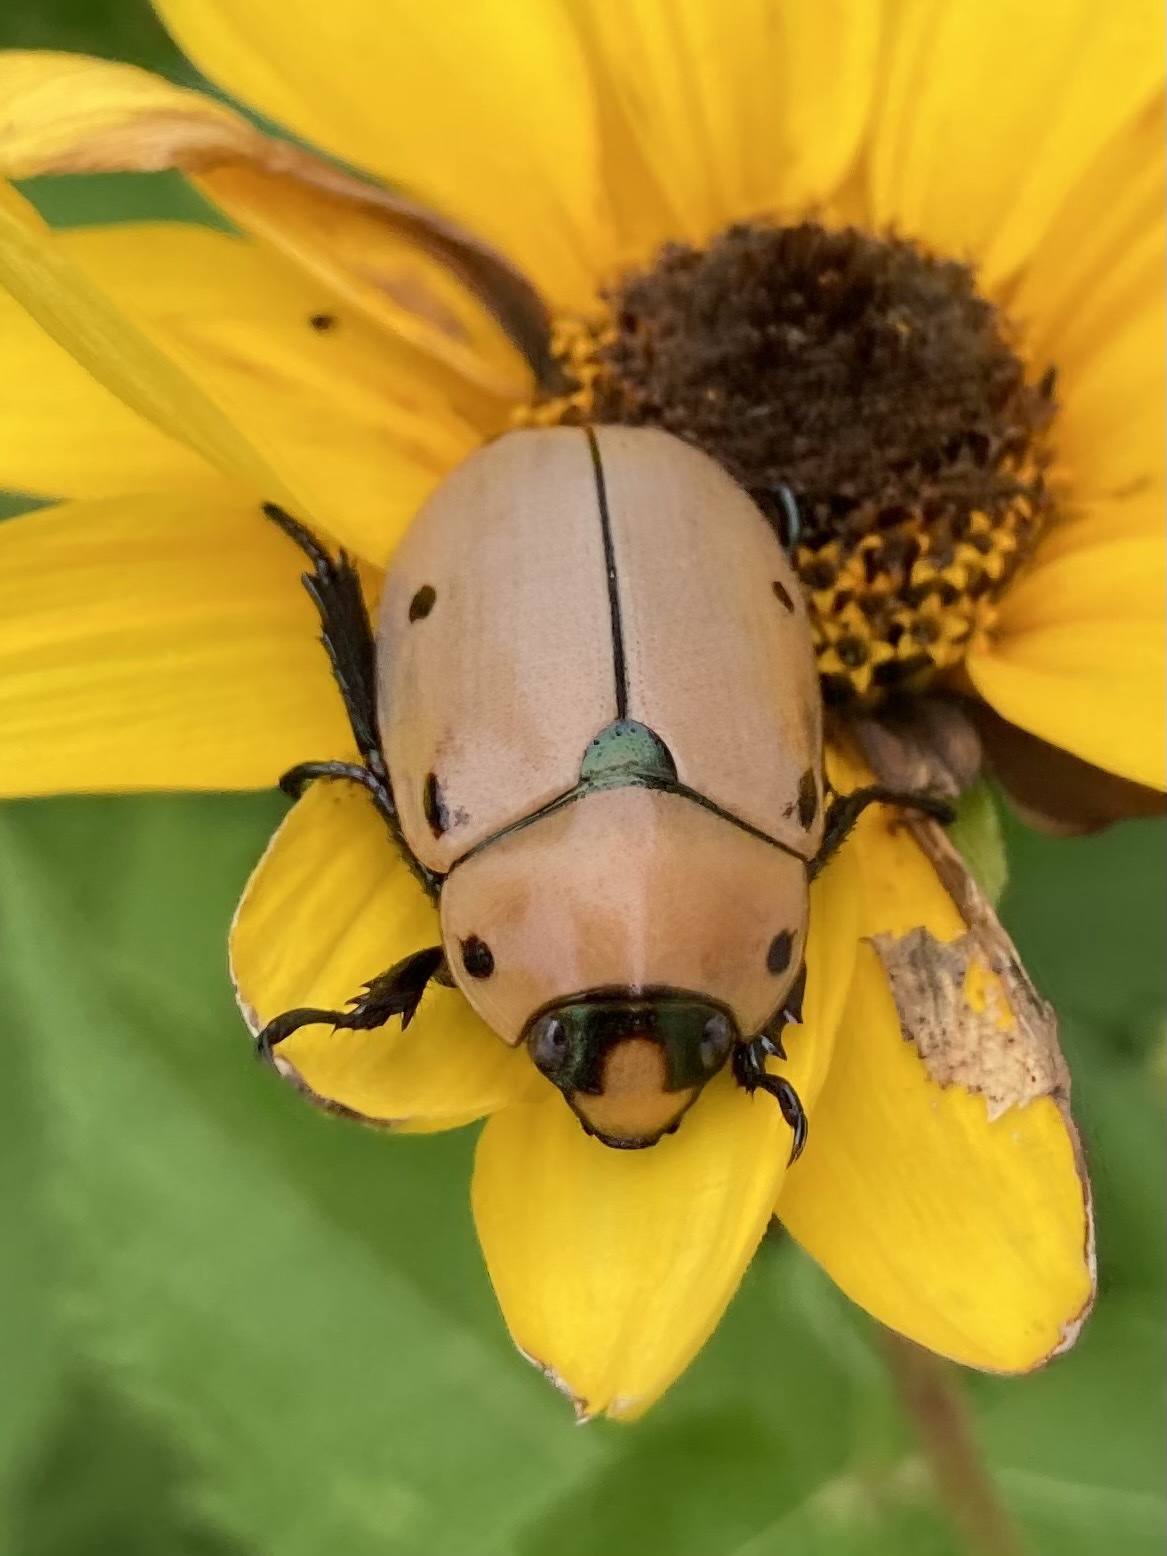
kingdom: Animalia
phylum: Arthropoda
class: Insecta
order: Coleoptera
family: Scarabaeidae
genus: Pelidnota
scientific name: Pelidnota punctata
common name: Grapevine beetle
